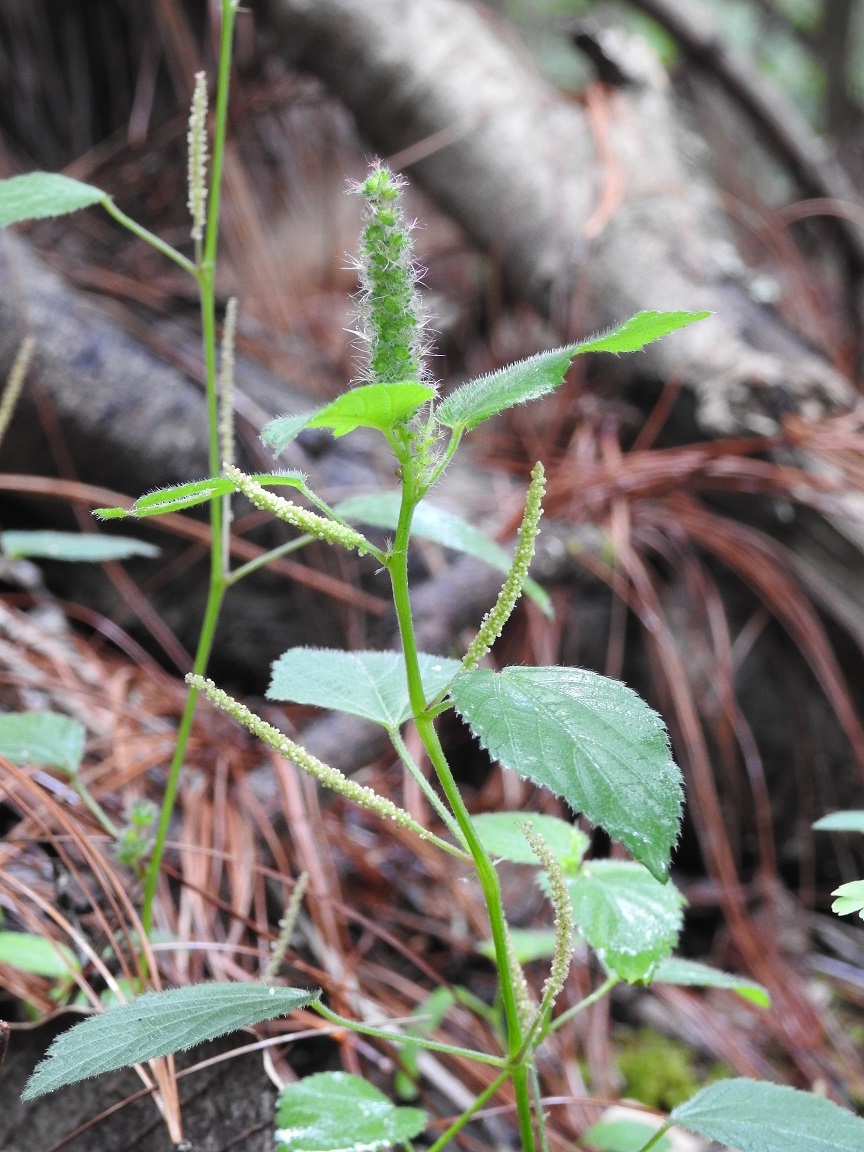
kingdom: Plantae
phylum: Tracheophyta
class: Magnoliopsida
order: Malpighiales
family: Euphorbiaceae
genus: Acalypha
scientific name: Acalypha phleoides
